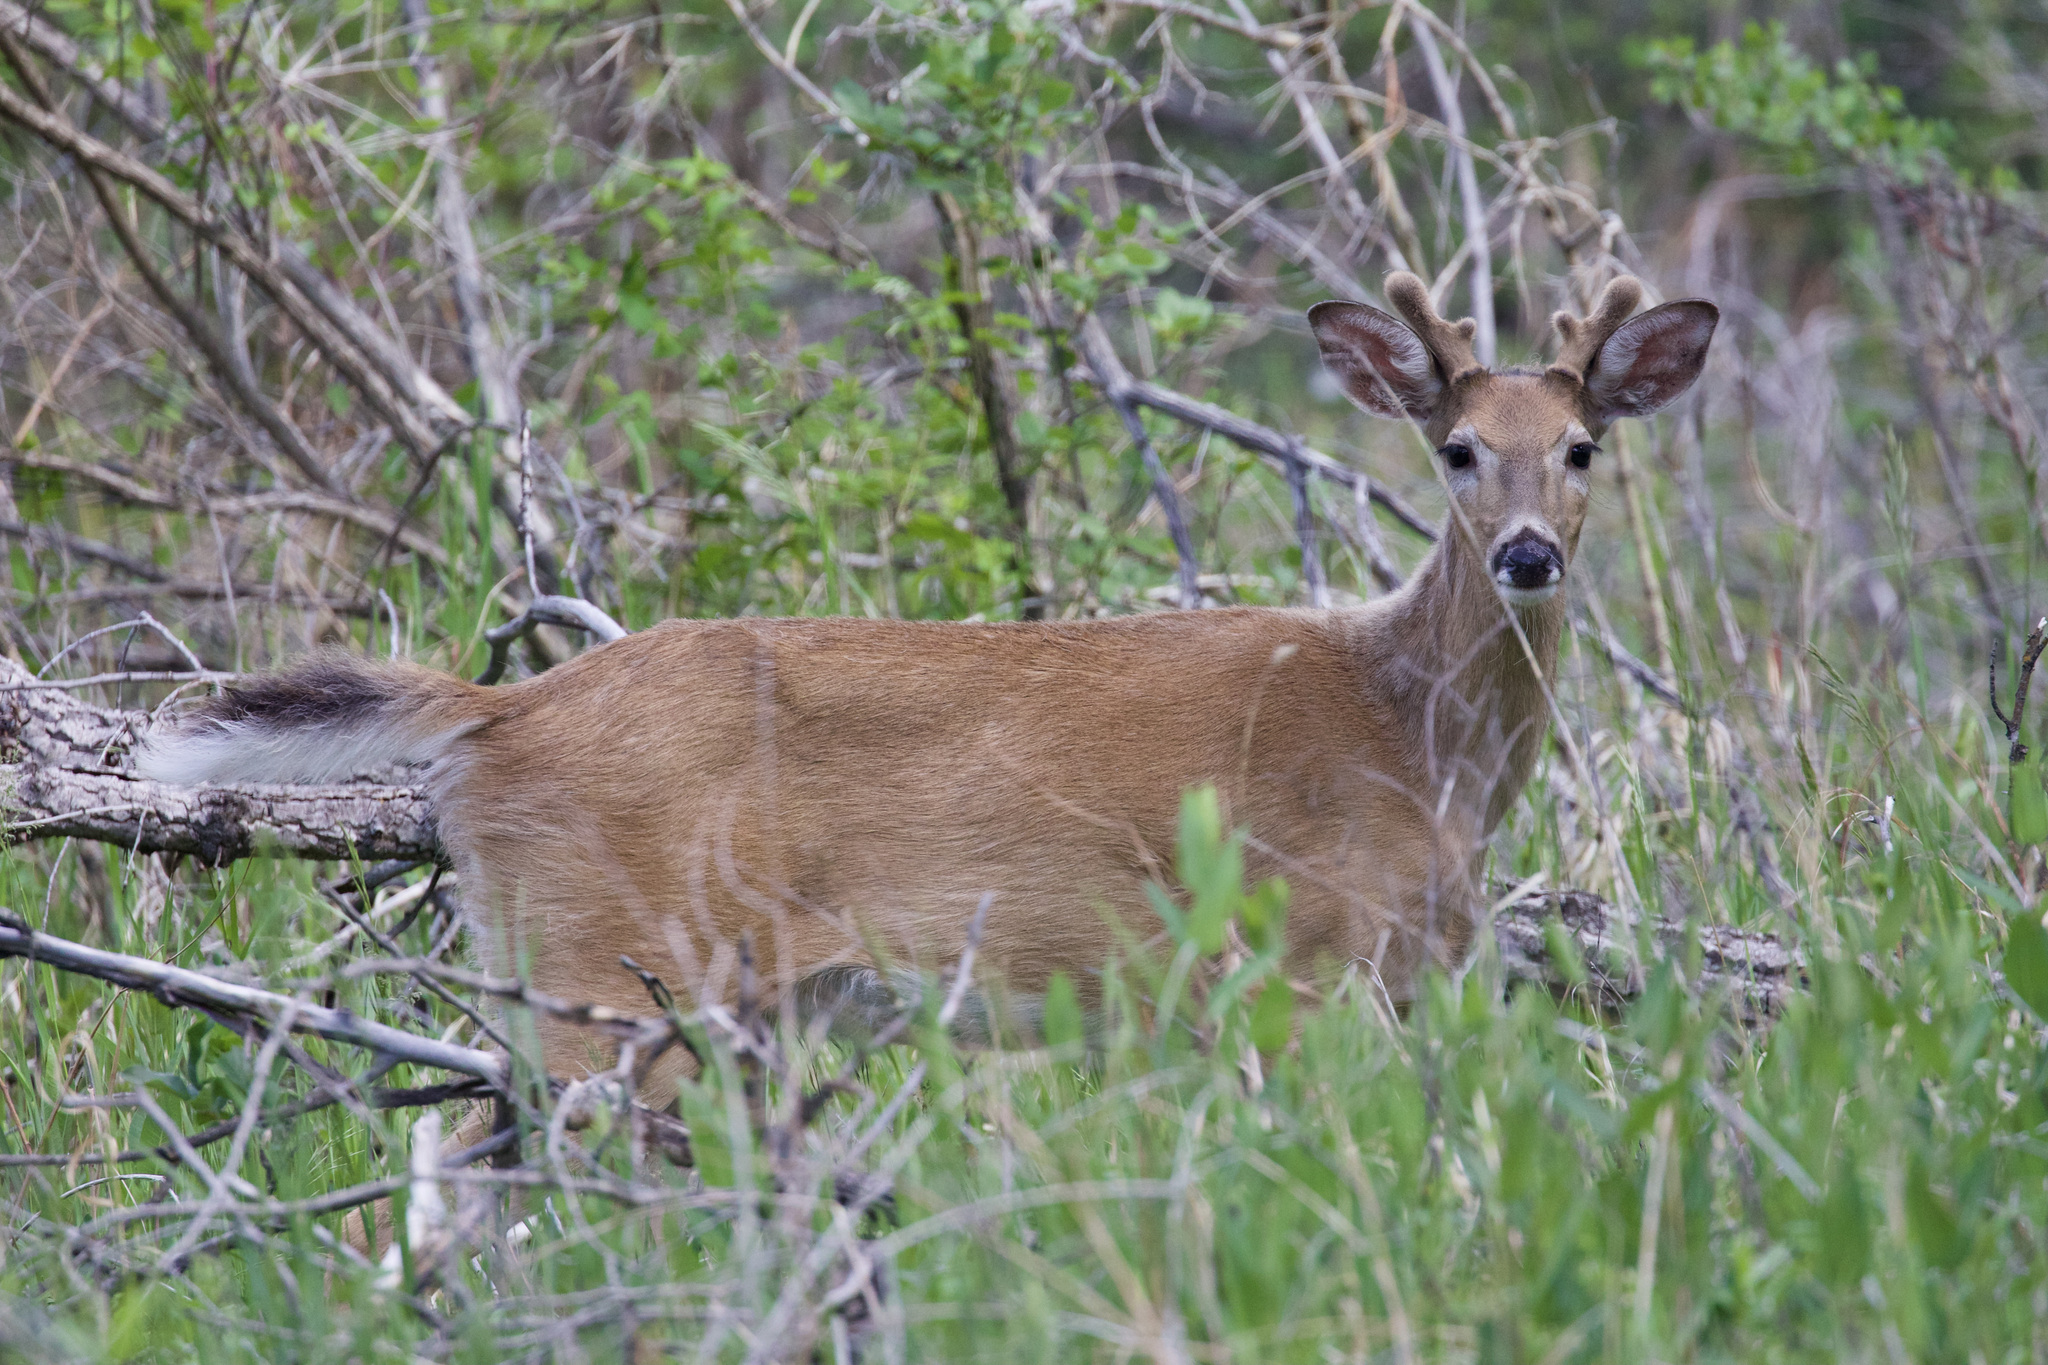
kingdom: Animalia
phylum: Chordata
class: Mammalia
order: Artiodactyla
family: Cervidae
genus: Odocoileus
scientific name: Odocoileus virginianus
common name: White-tailed deer
